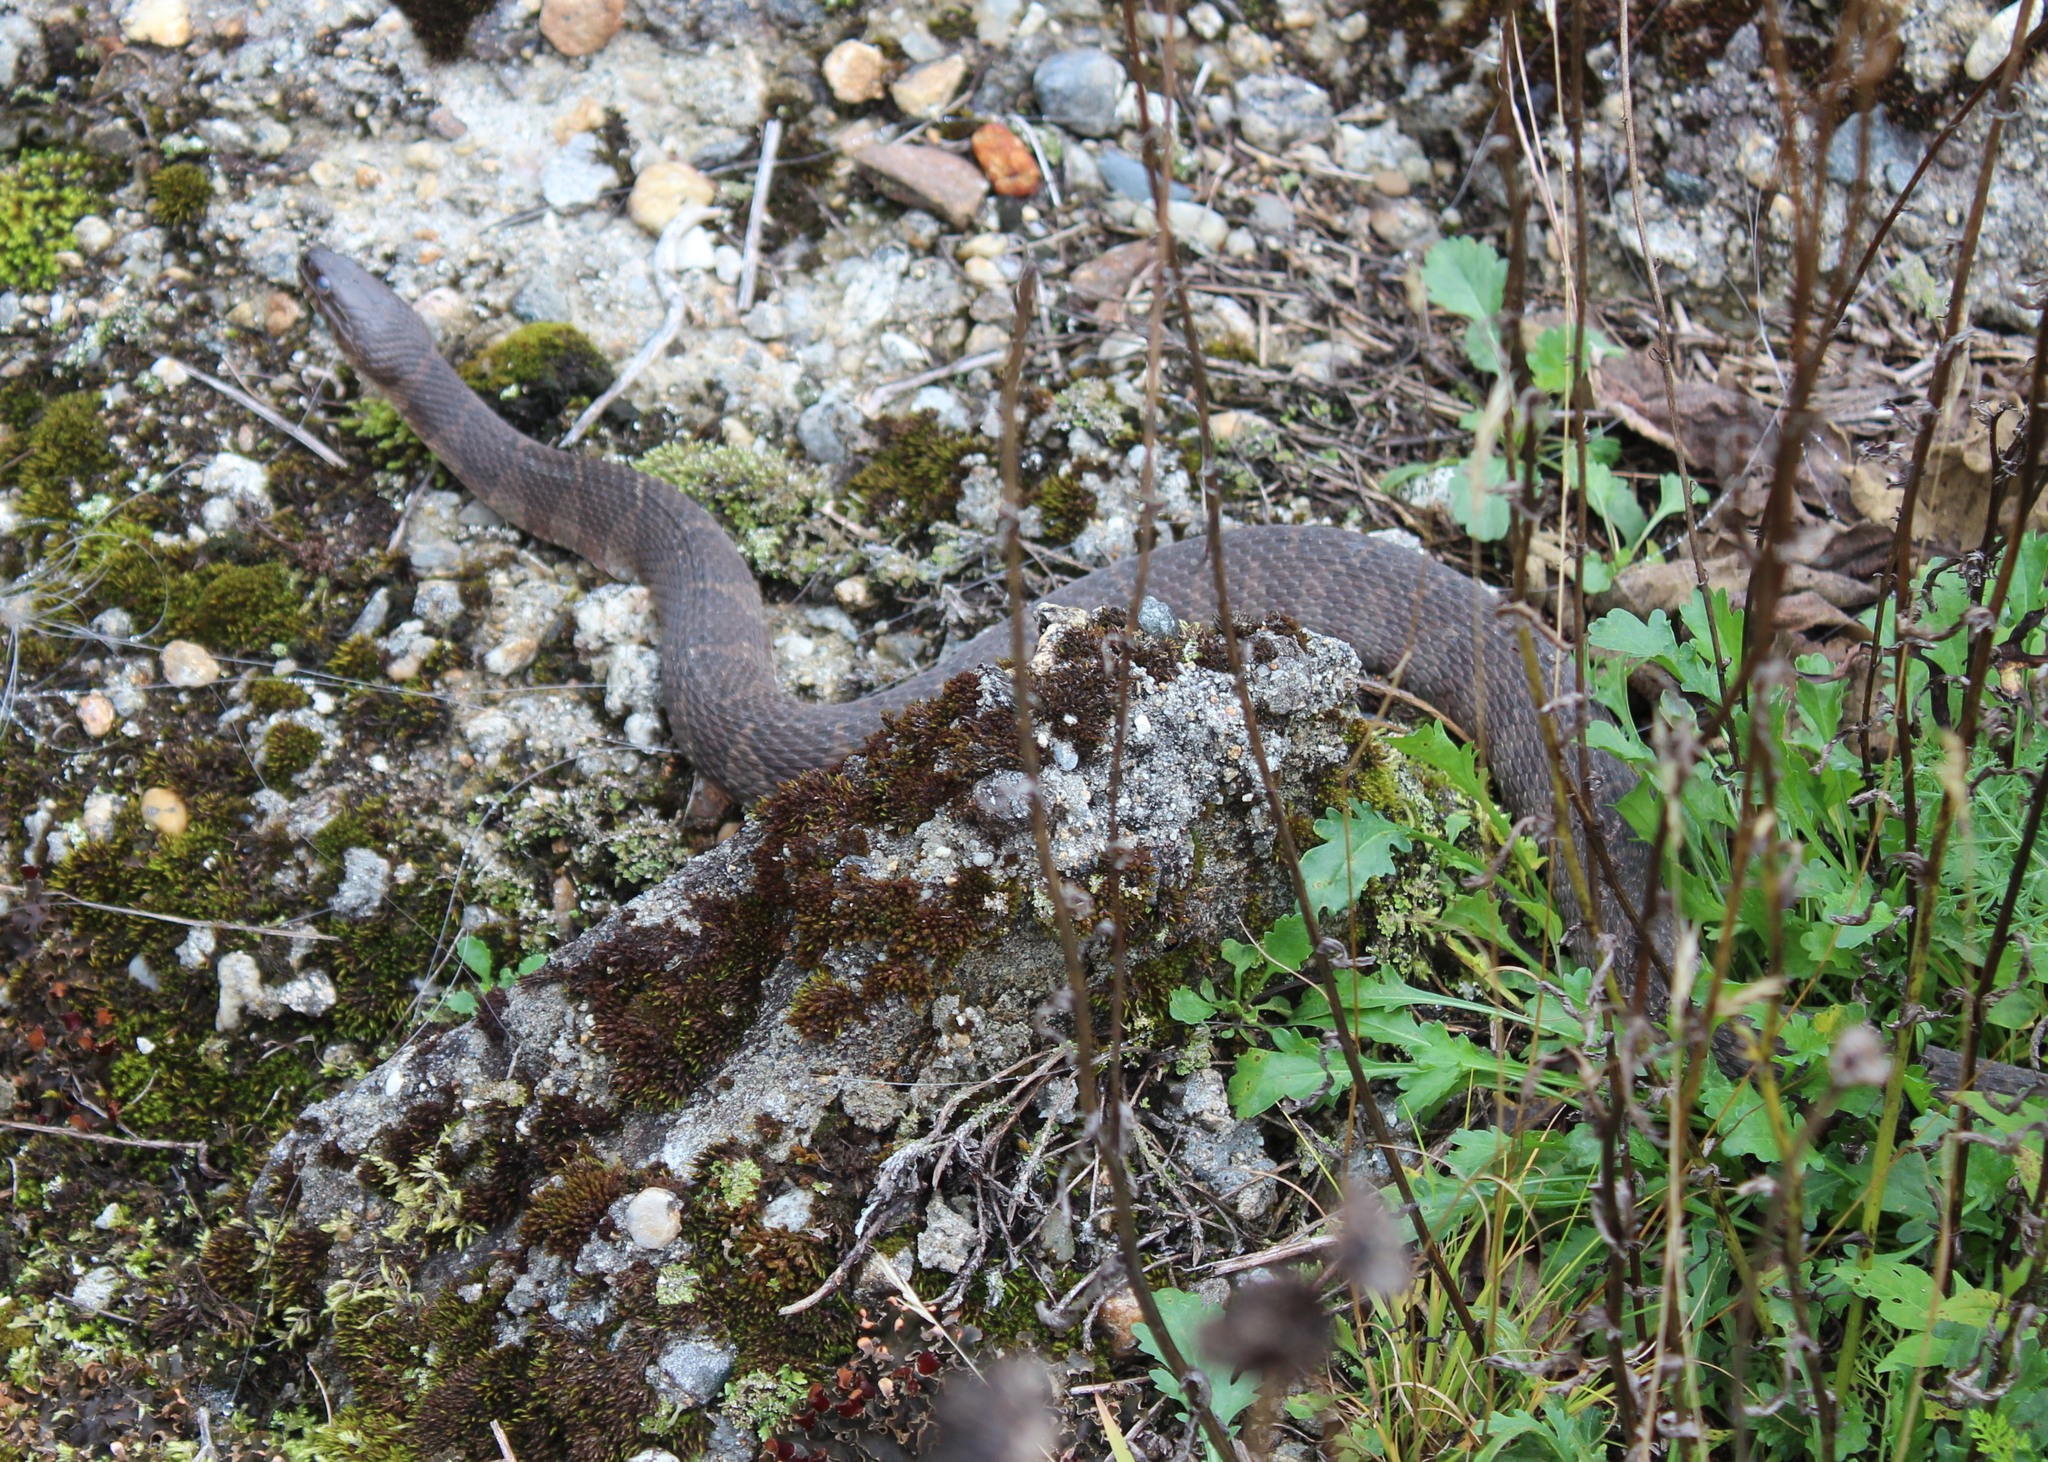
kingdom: Animalia
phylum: Chordata
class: Squamata
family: Colubridae
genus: Nerodia
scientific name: Nerodia sipedon
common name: Northern water snake
